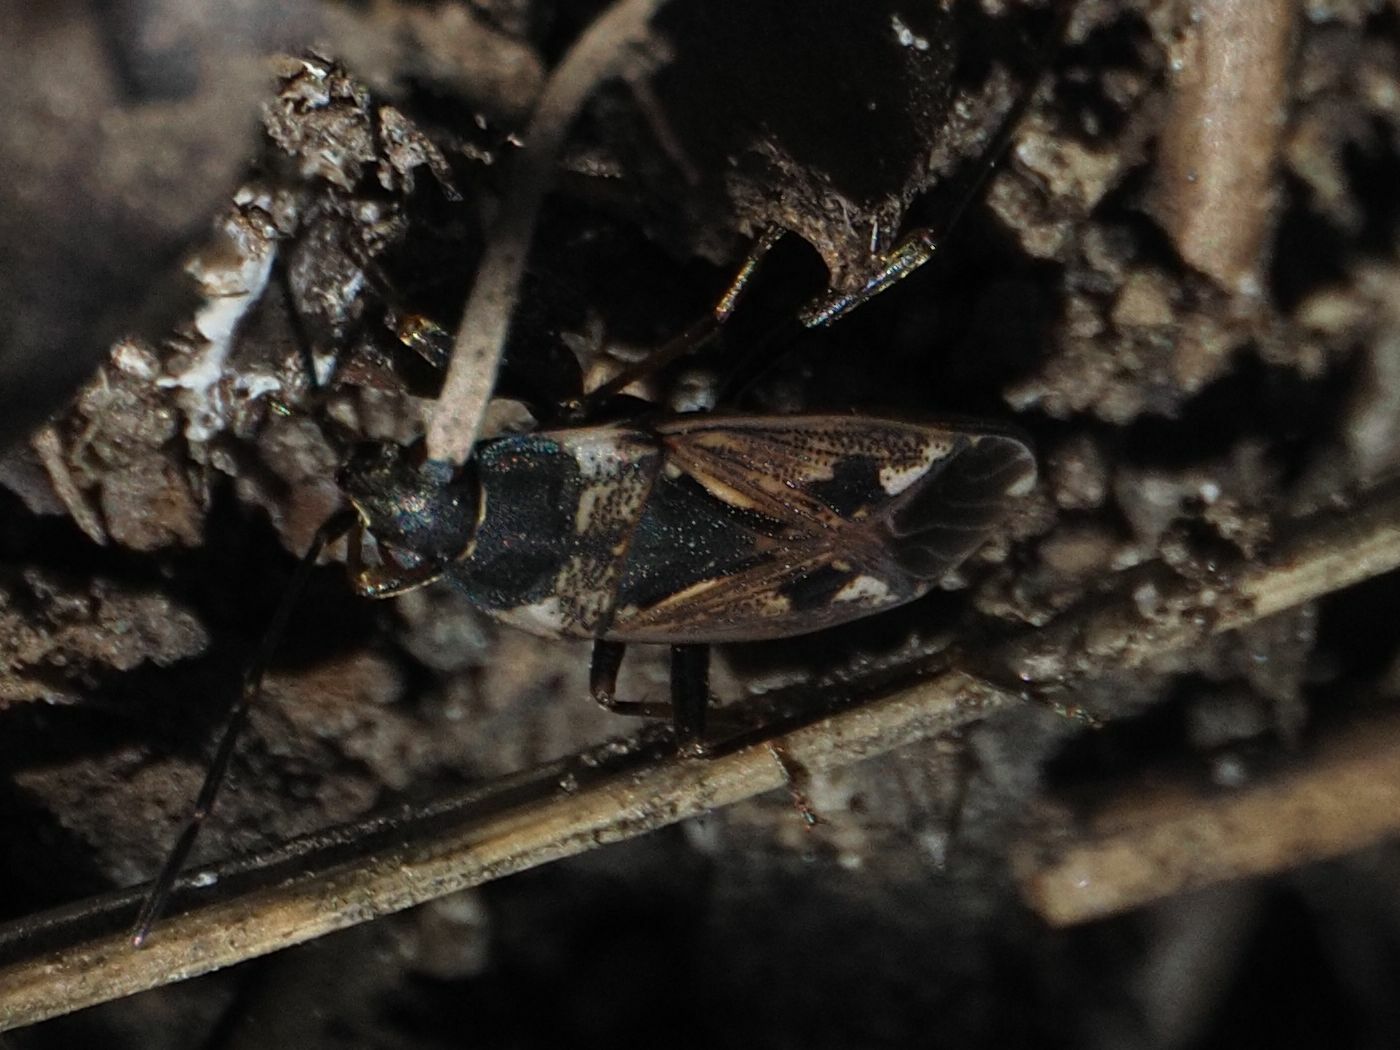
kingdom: Animalia
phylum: Arthropoda
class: Insecta
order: Hemiptera
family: Rhyparochromidae
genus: Rhyparochromus
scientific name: Rhyparochromus vulgaris
